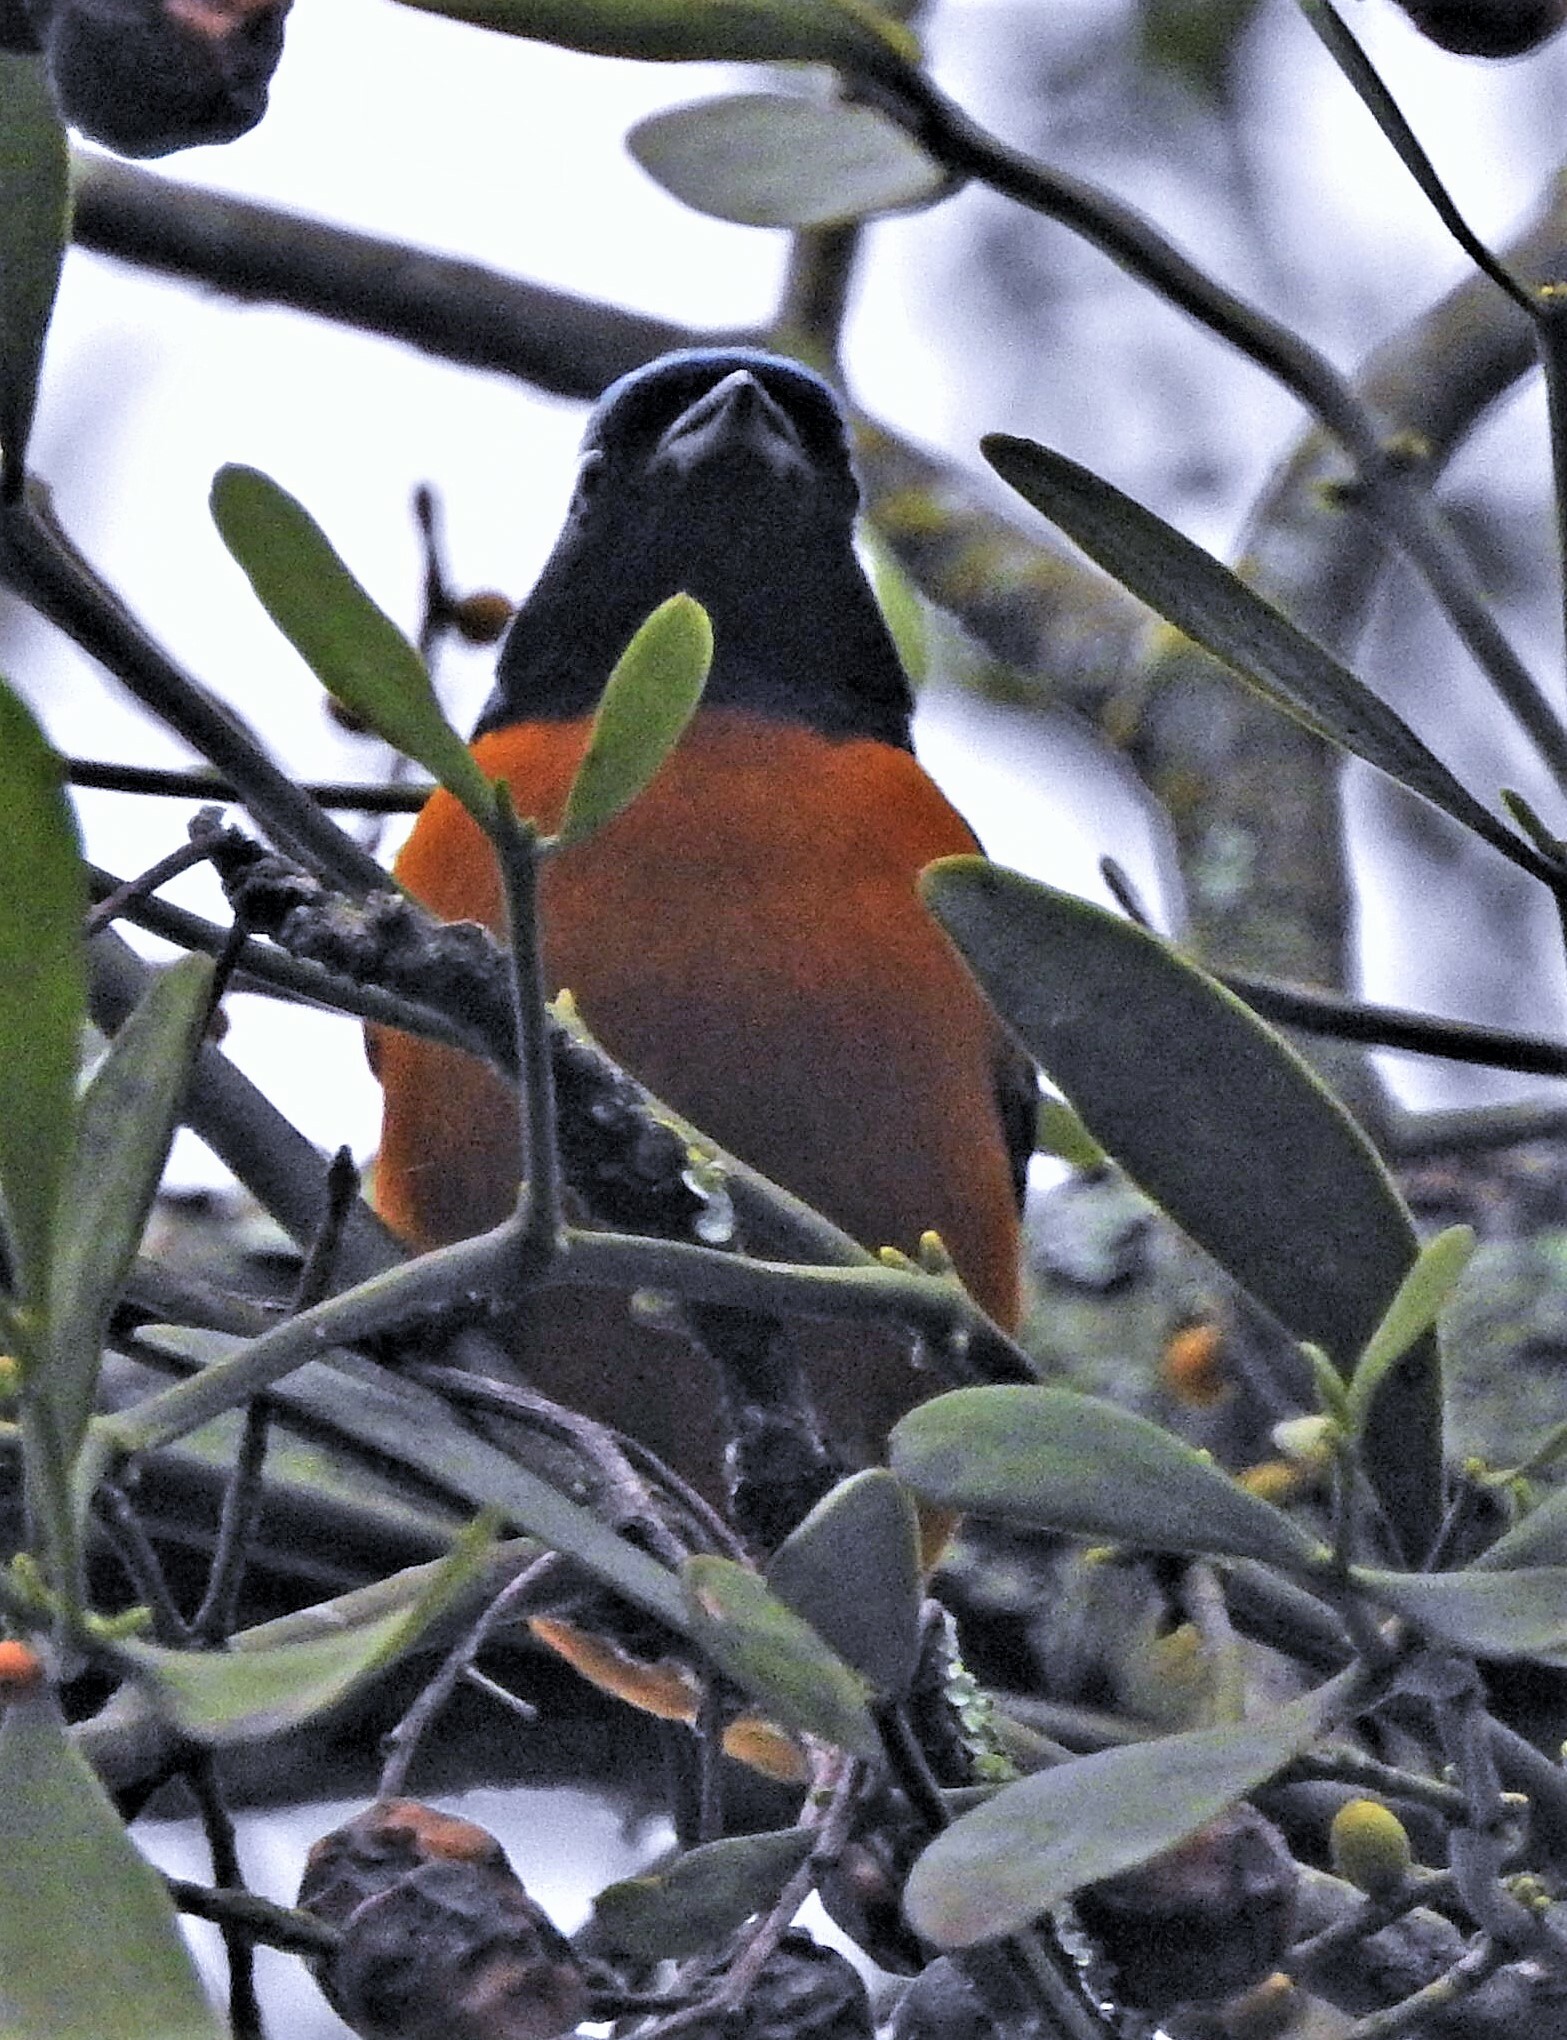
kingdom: Animalia
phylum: Chordata
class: Aves
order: Passeriformes
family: Fringillidae
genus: Euphonia
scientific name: Euphonia cyanocephala
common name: Golden-rumped euphonia
